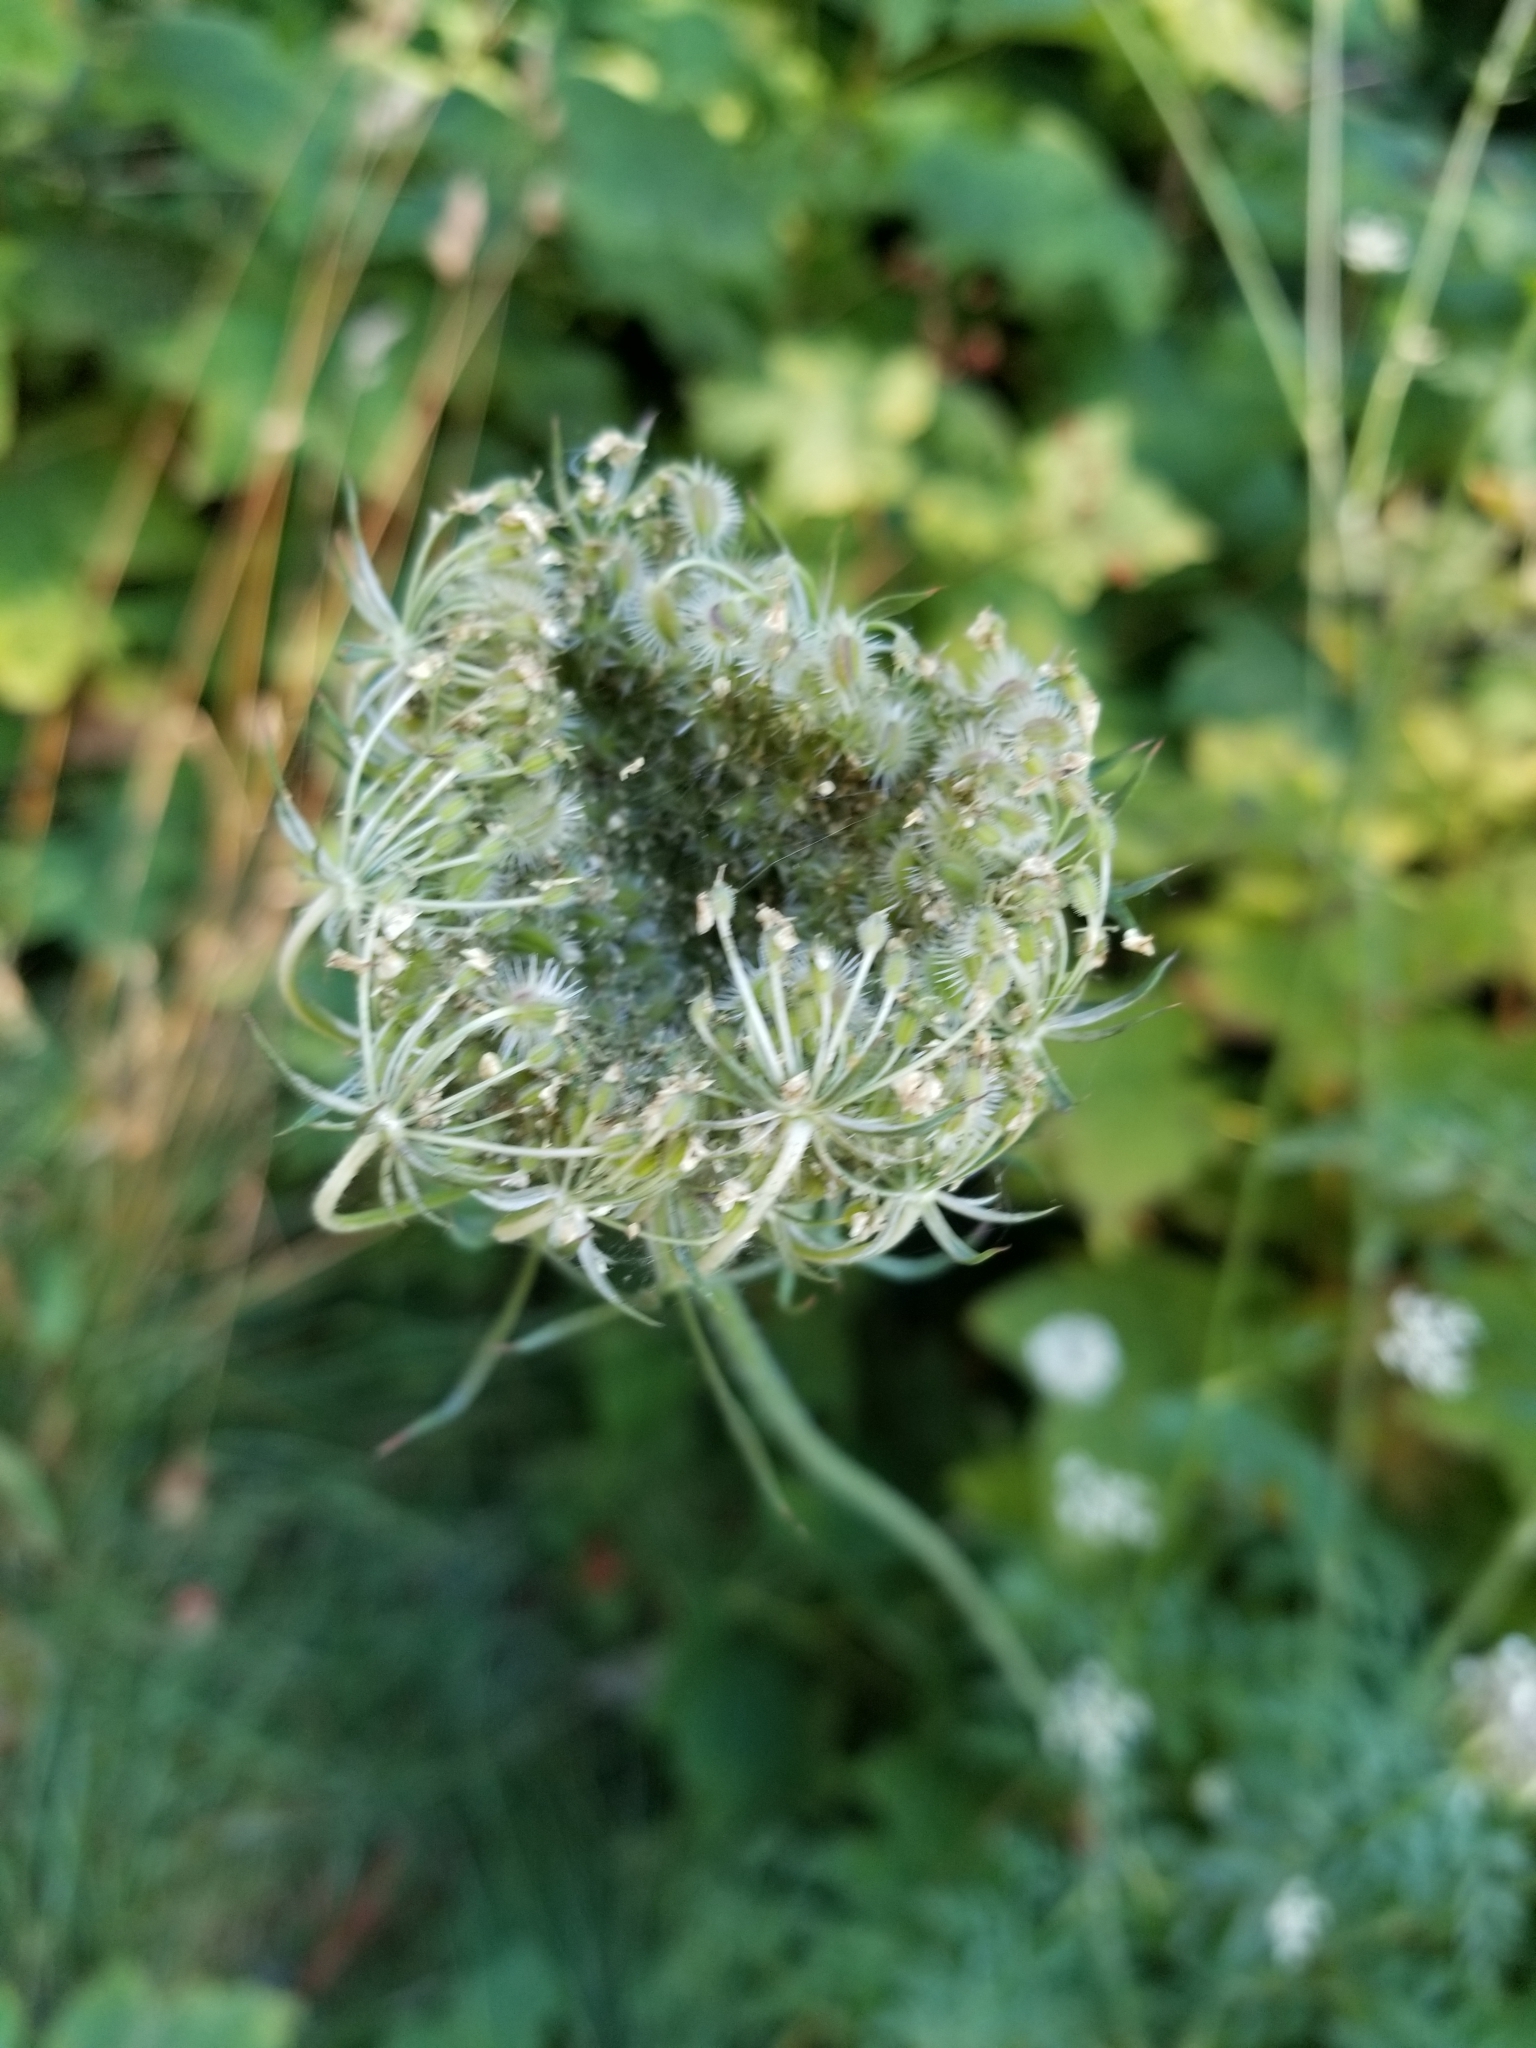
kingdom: Plantae
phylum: Tracheophyta
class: Magnoliopsida
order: Apiales
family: Apiaceae
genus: Daucus
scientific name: Daucus carota
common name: Wild carrot
